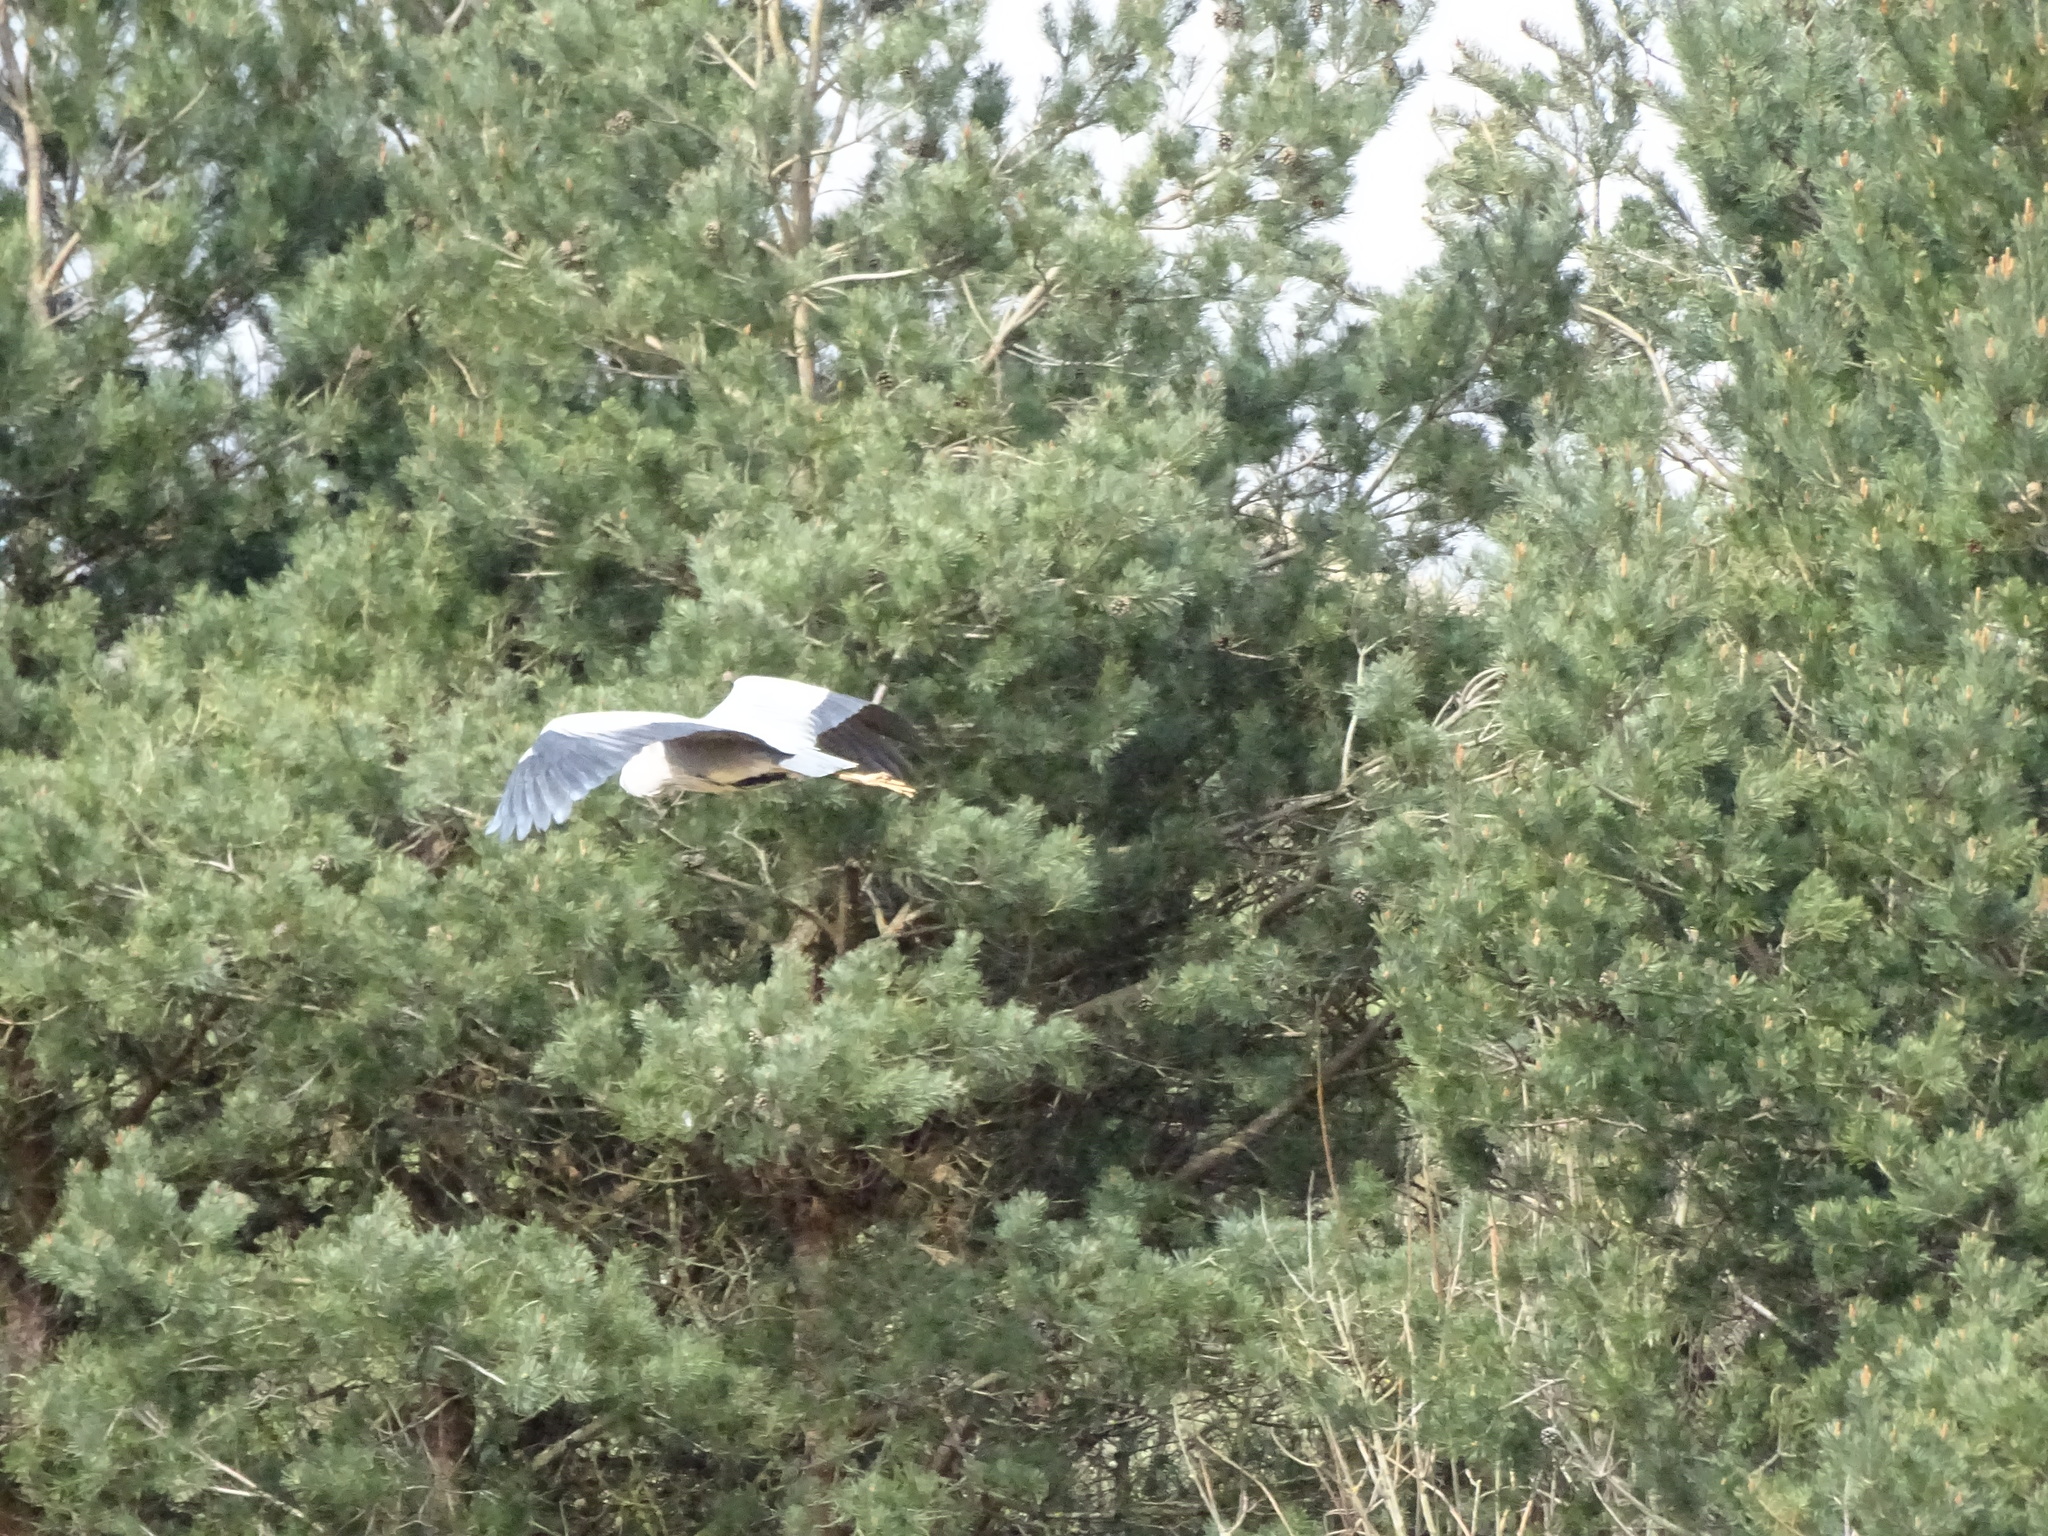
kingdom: Animalia
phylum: Chordata
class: Aves
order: Pelecaniformes
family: Ardeidae
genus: Ardea
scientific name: Ardea cinerea
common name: Grey heron
